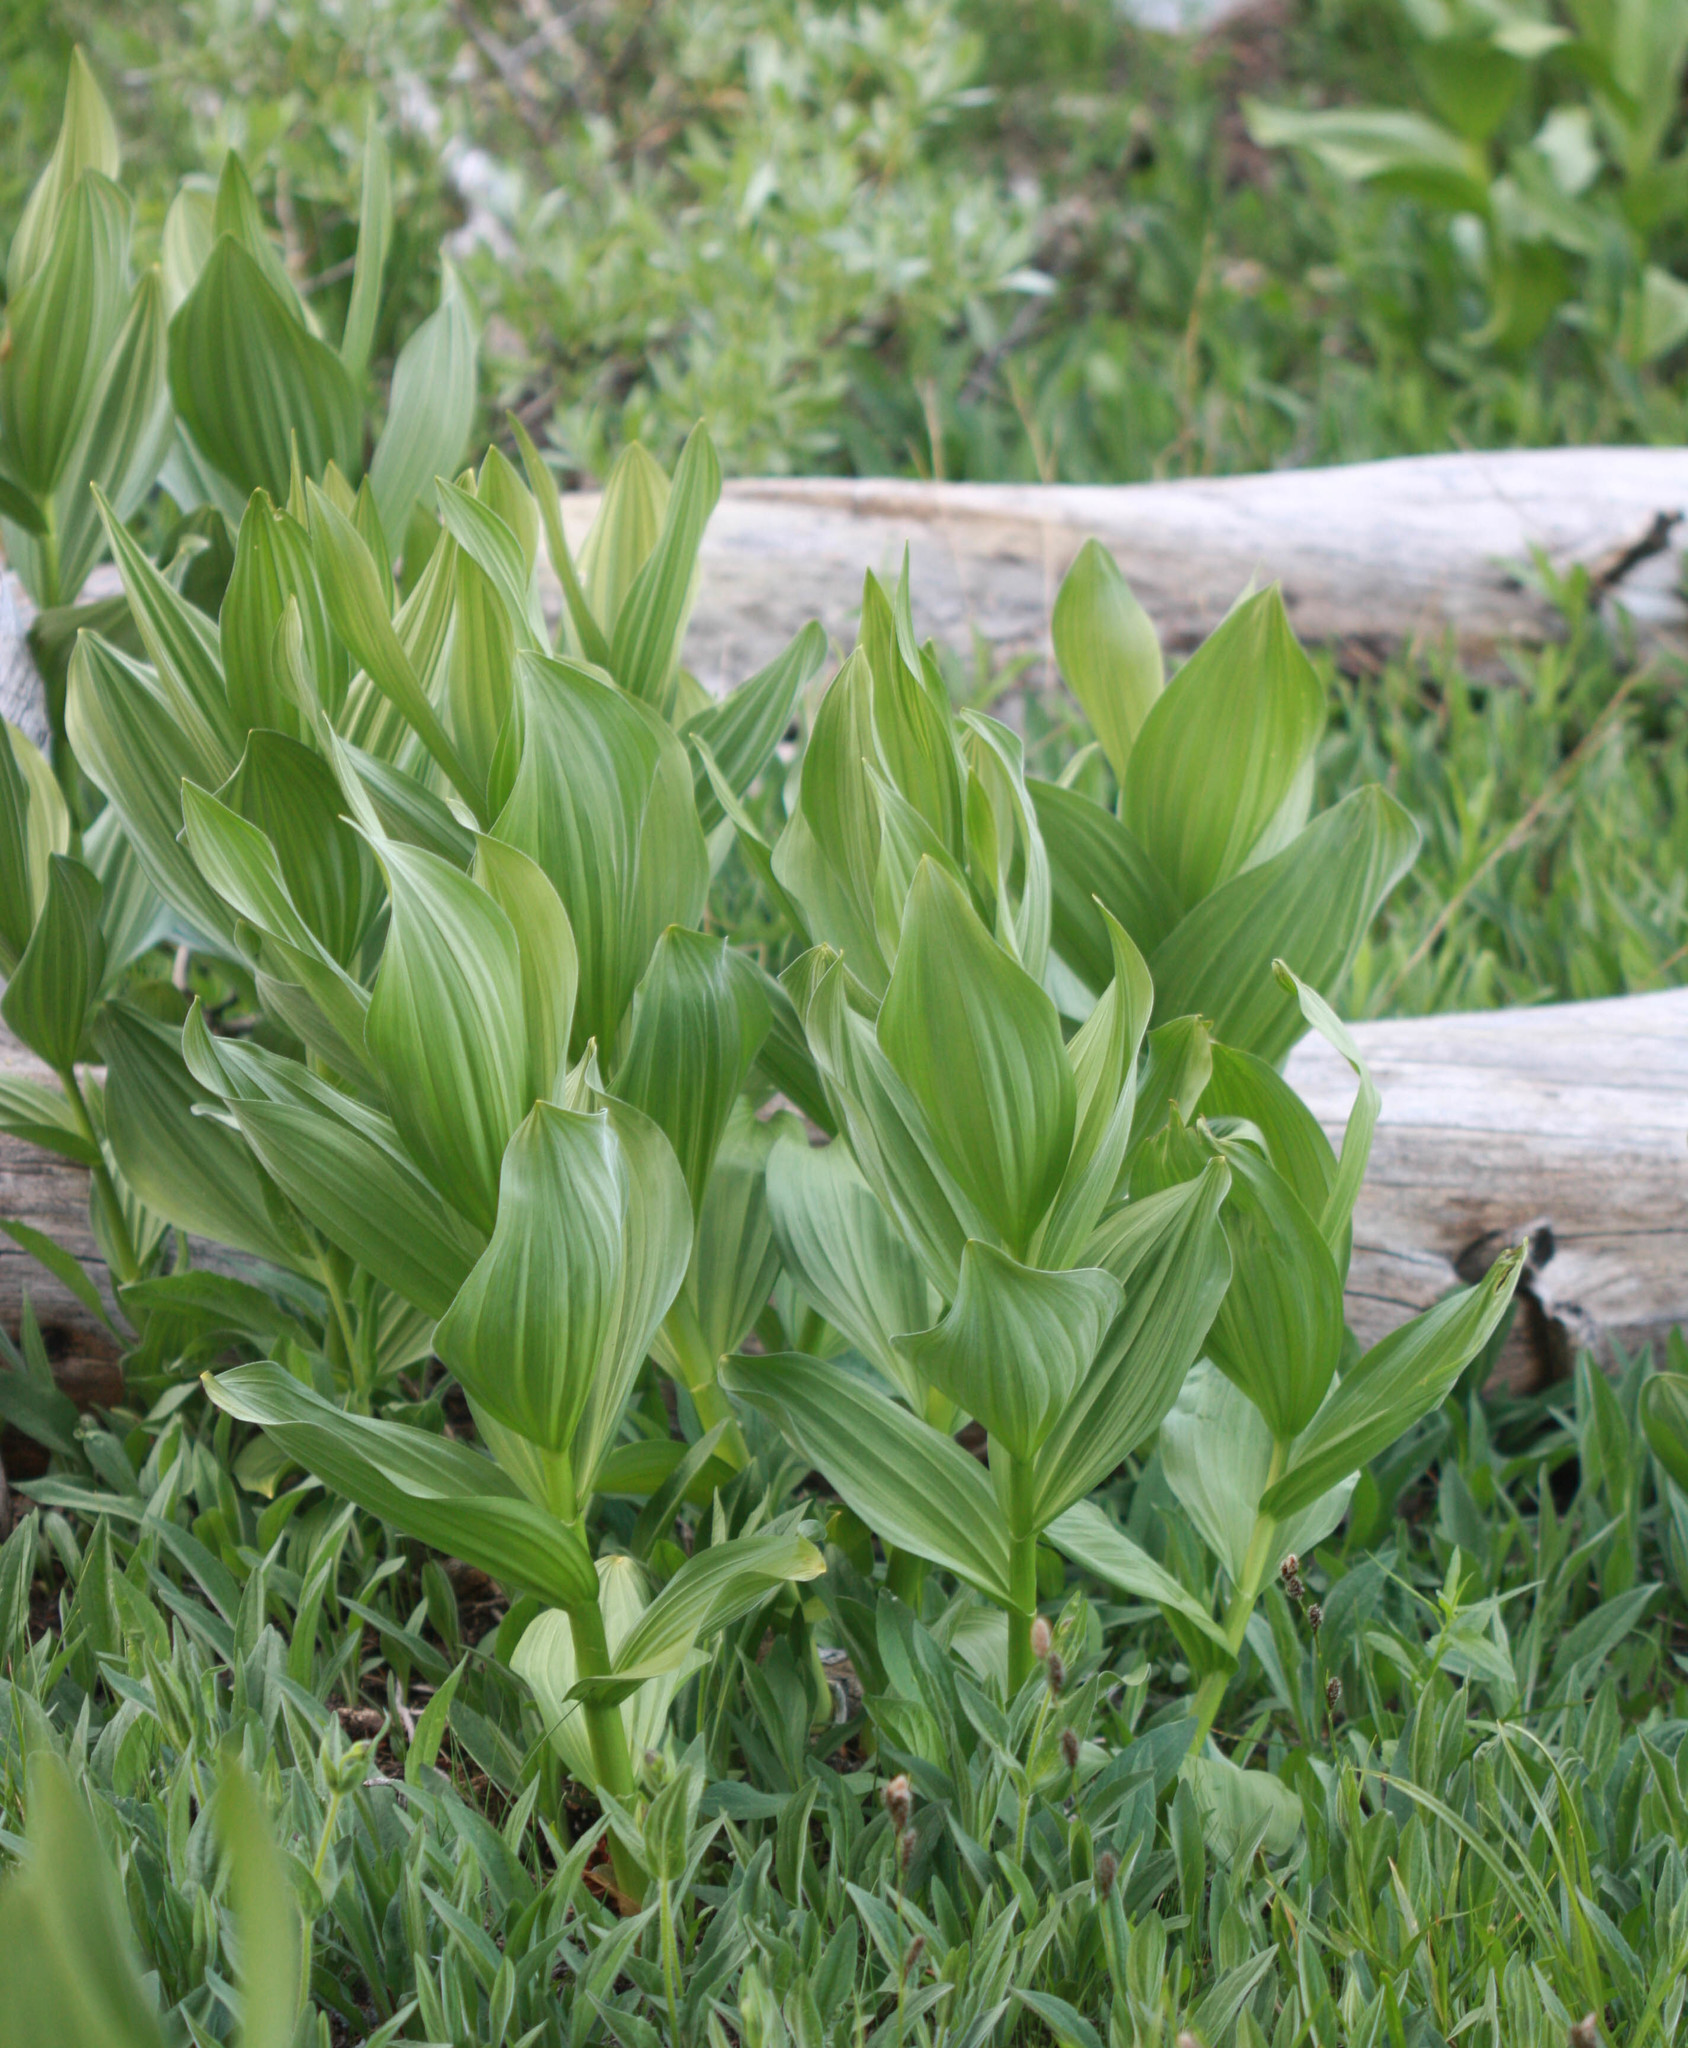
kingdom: Plantae
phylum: Tracheophyta
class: Liliopsida
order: Liliales
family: Melanthiaceae
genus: Veratrum
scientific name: Veratrum californicum
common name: California veratrum
